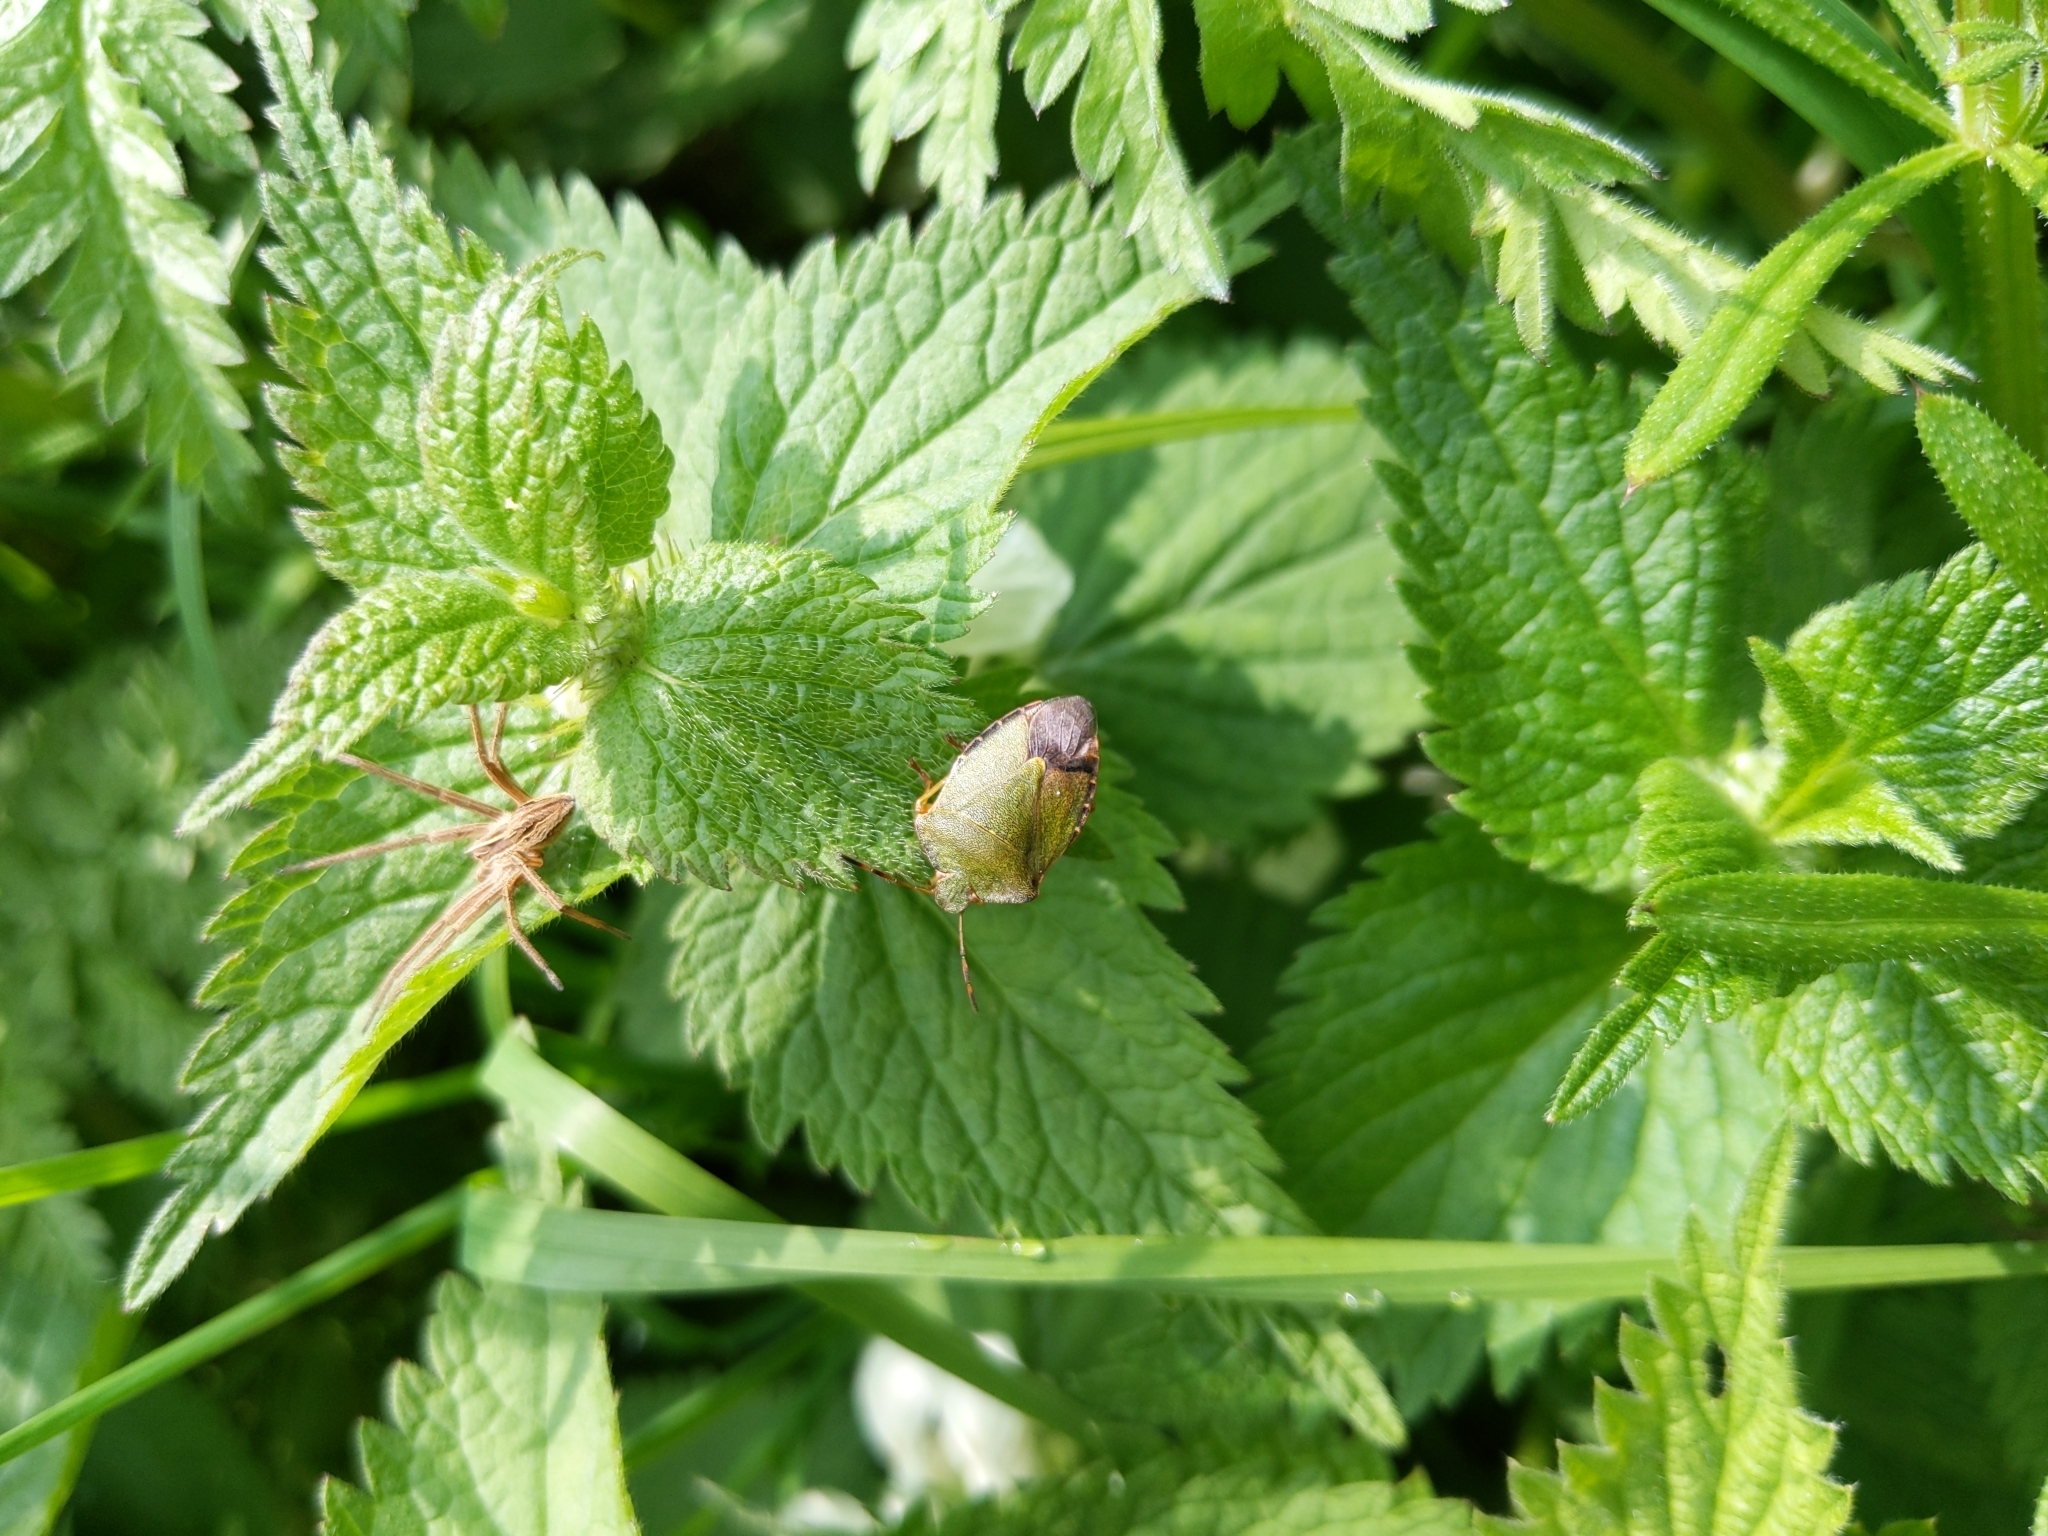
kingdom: Animalia
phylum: Arthropoda
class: Insecta
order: Hemiptera
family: Pentatomidae
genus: Palomena
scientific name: Palomena prasina
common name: Green shieldbug
